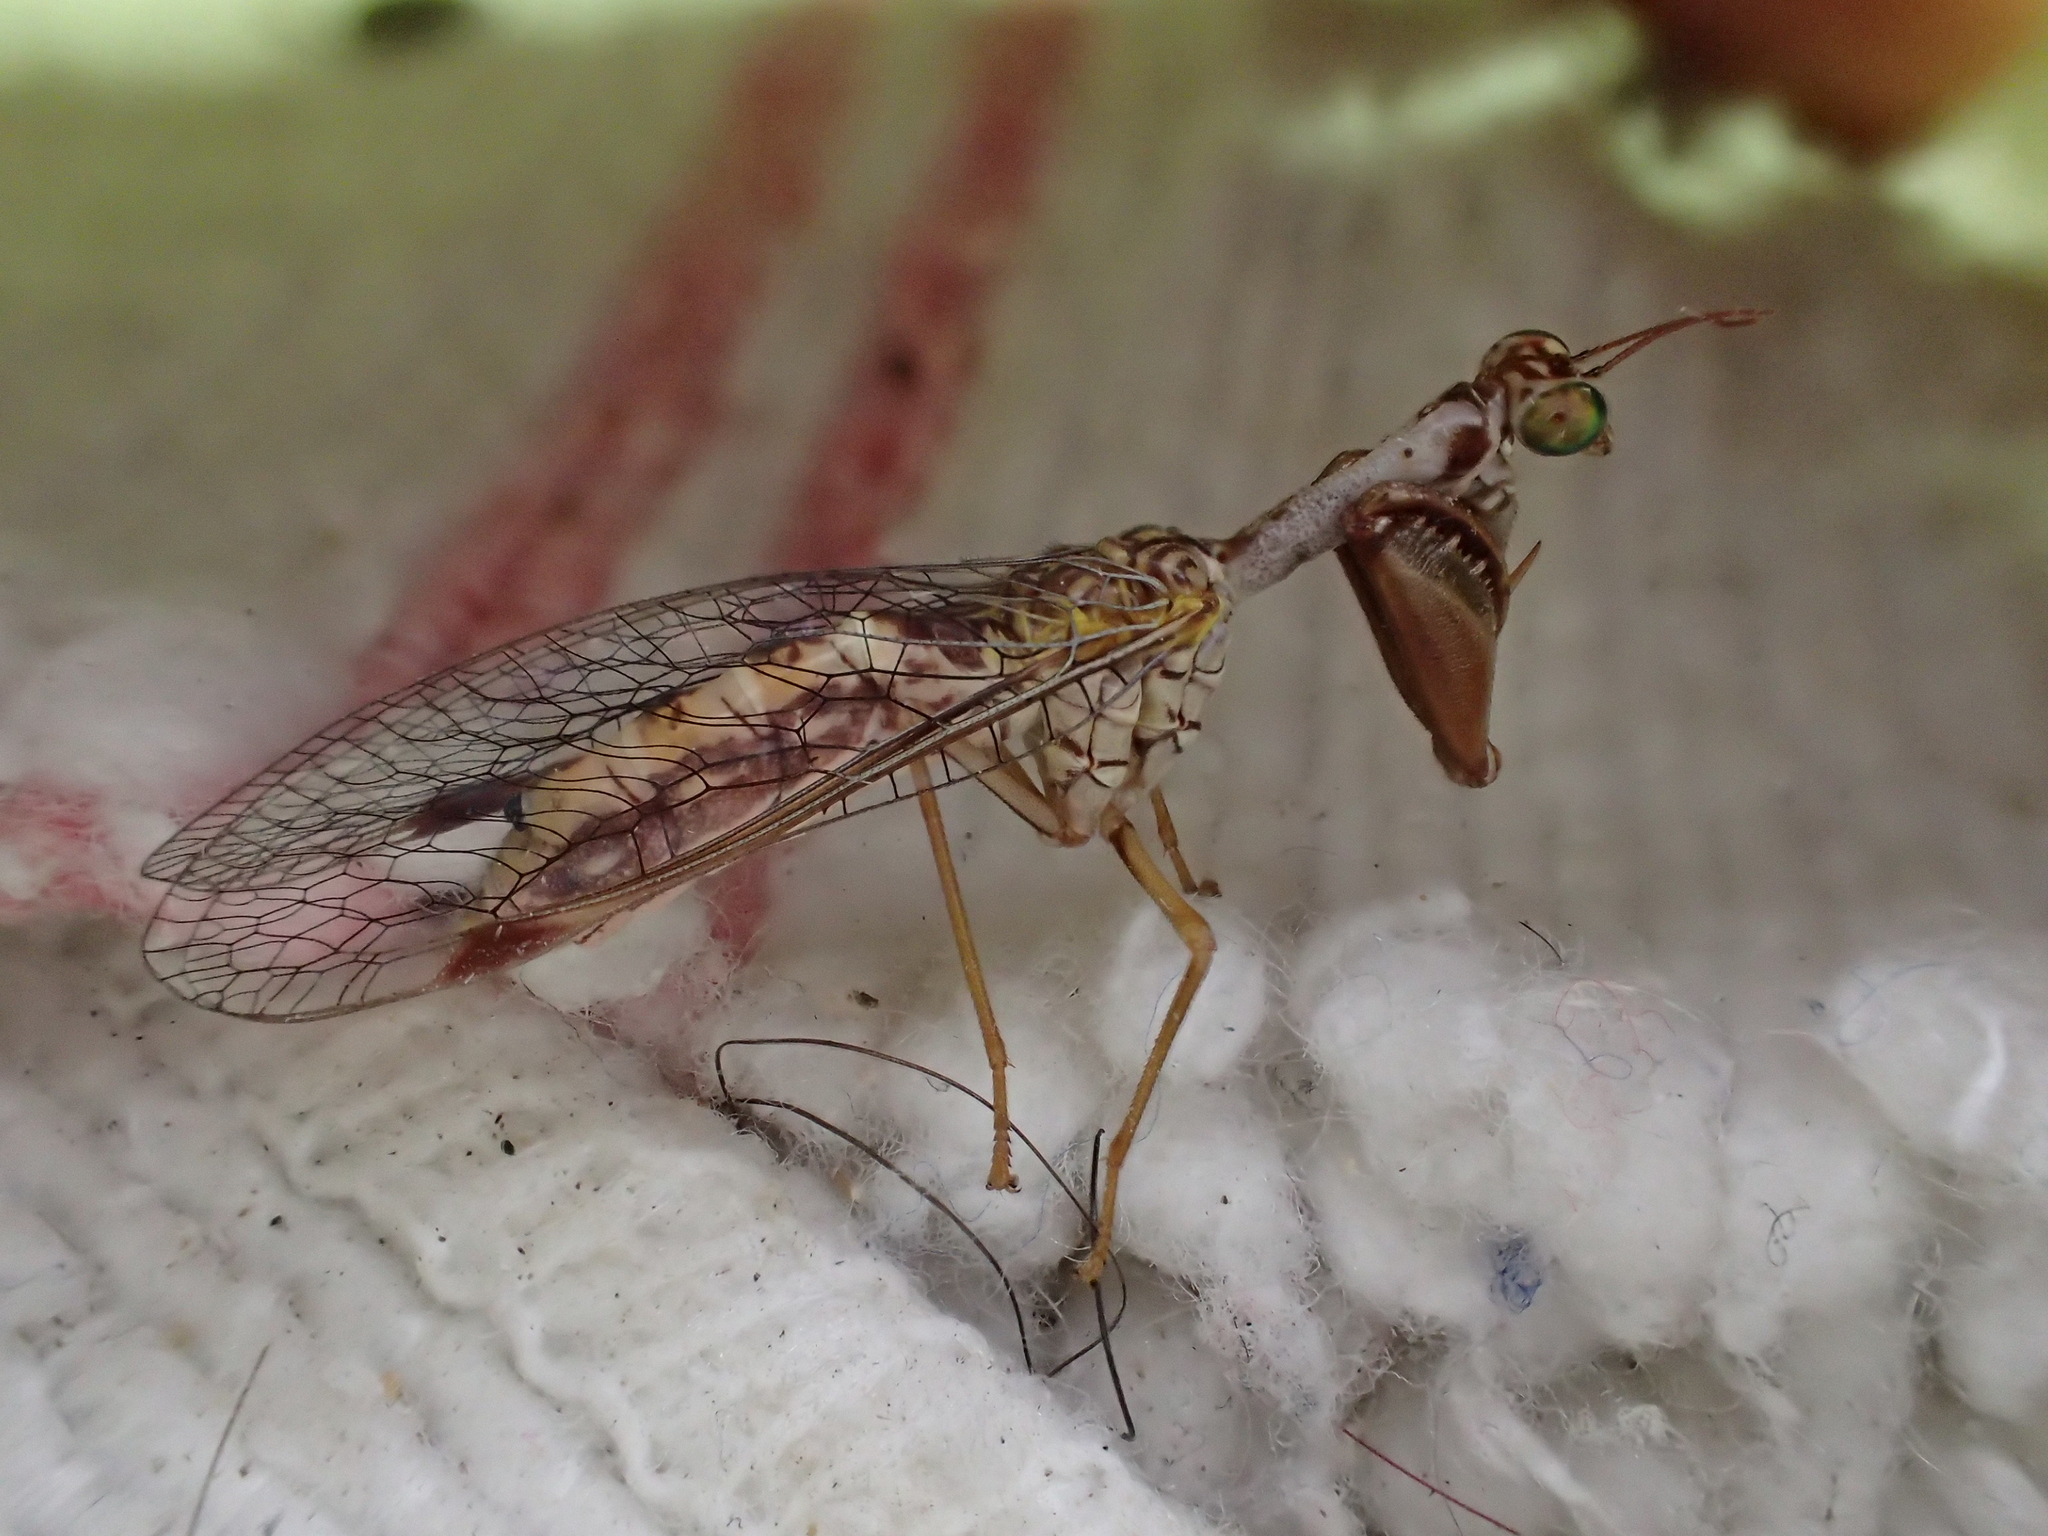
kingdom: Animalia
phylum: Arthropoda
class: Insecta
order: Neuroptera
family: Mantispidae
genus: Mantispa
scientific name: Mantispa styriaca
